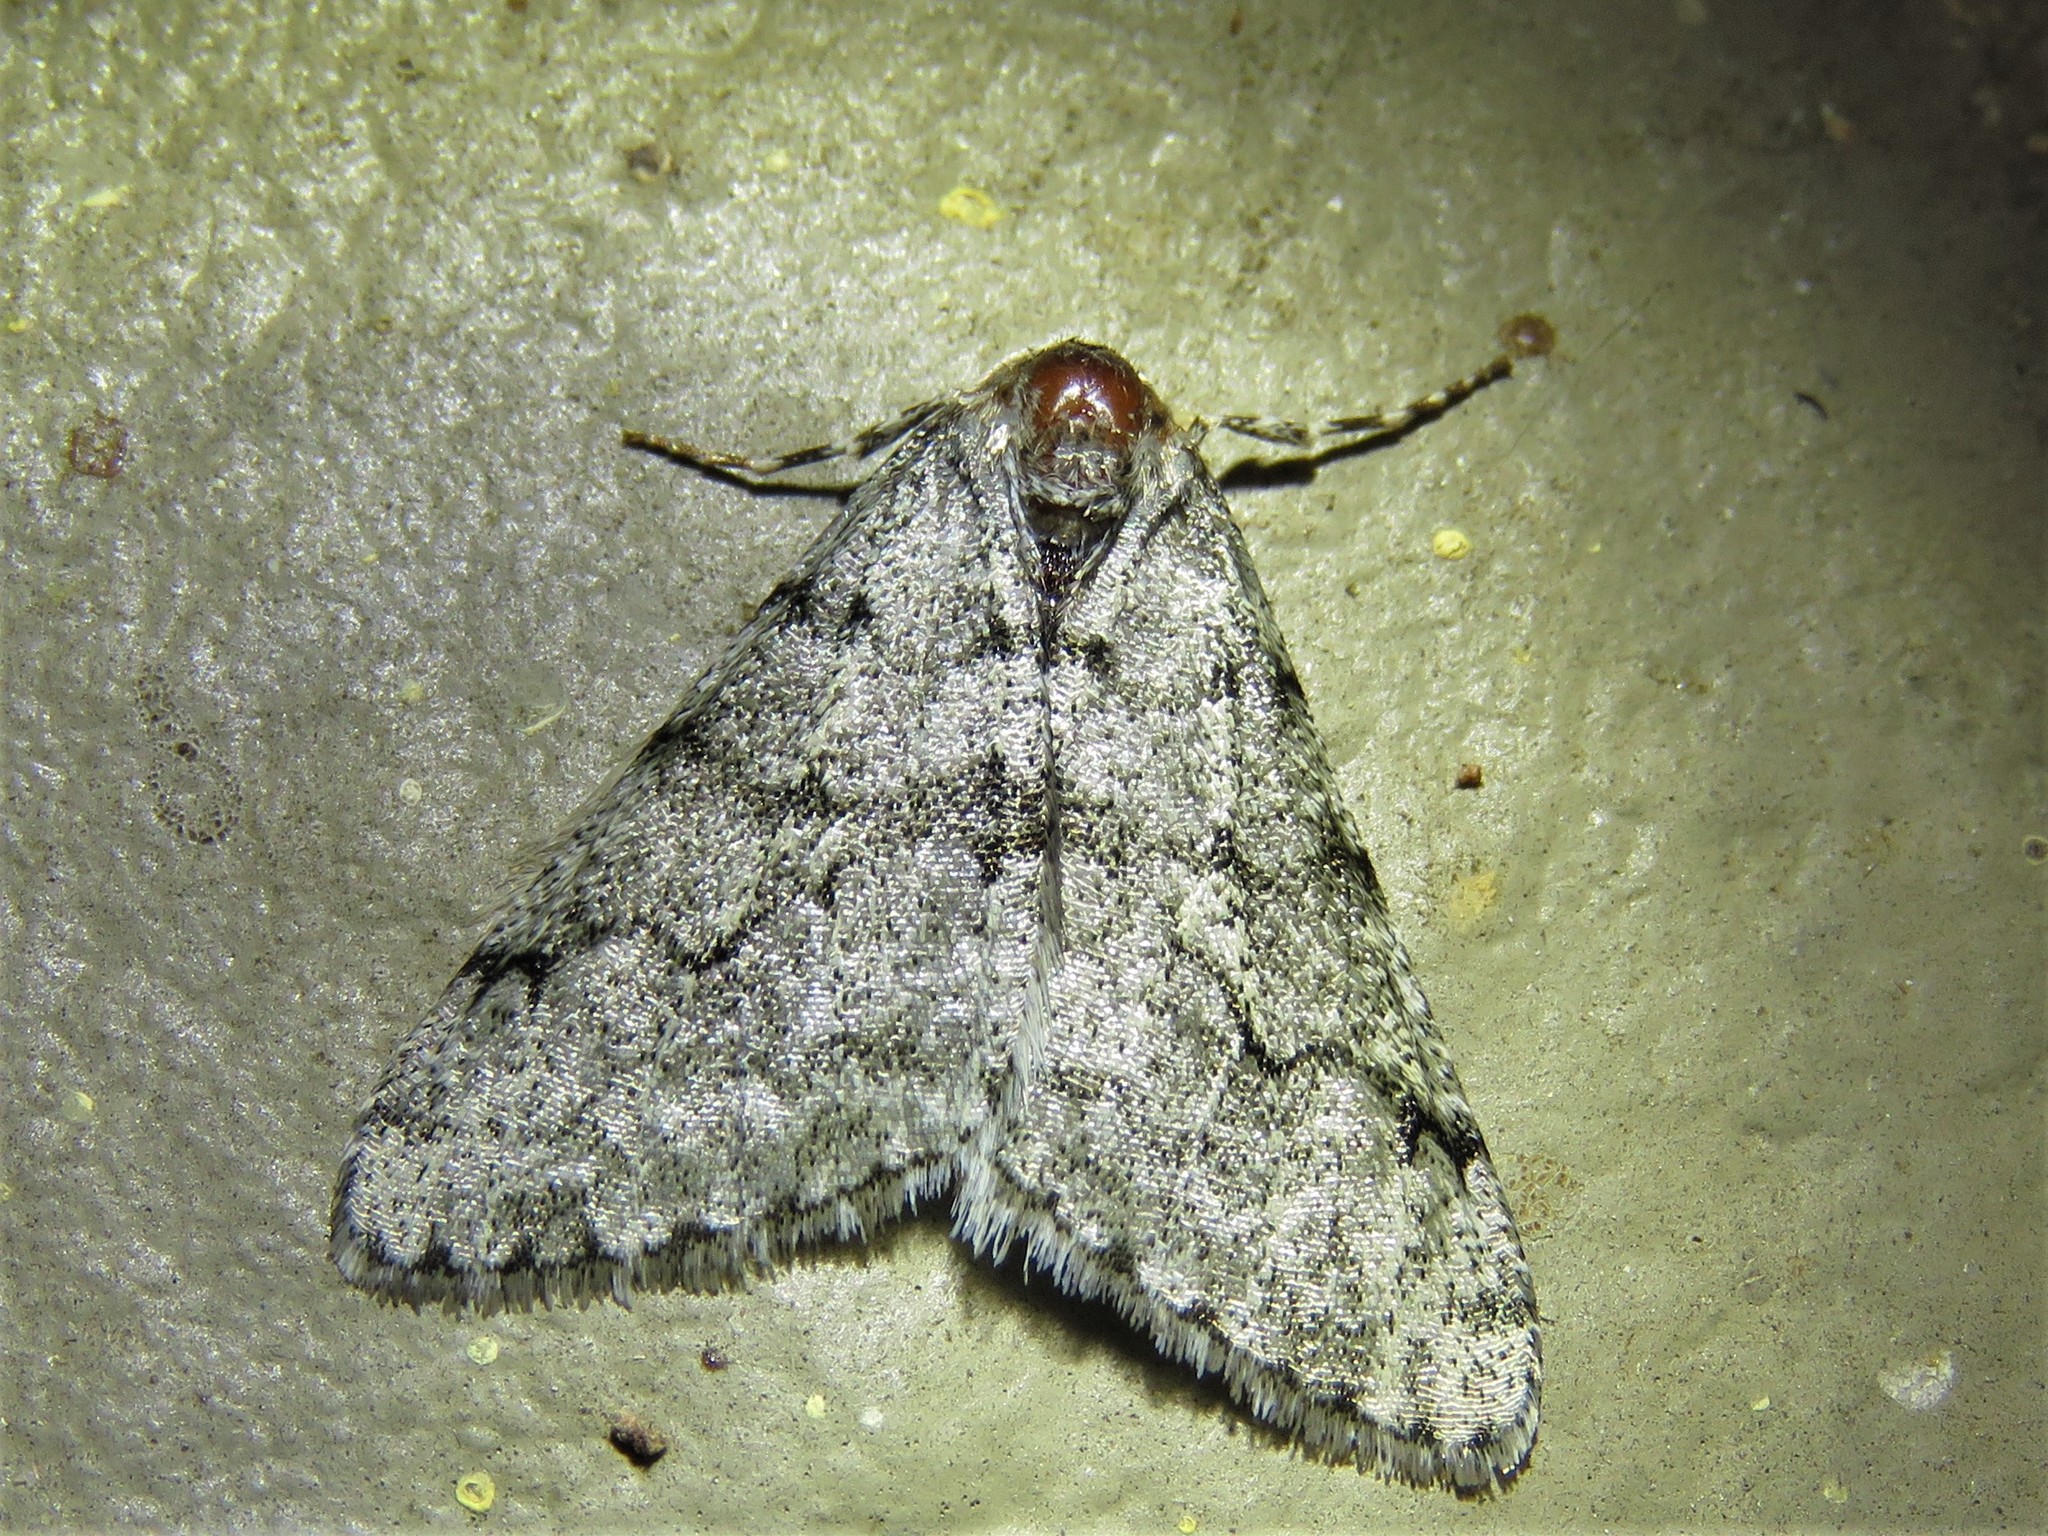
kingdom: Animalia
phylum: Arthropoda
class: Insecta
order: Lepidoptera
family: Geometridae
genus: Phigalia
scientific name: Phigalia strigataria
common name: Small phigalia
